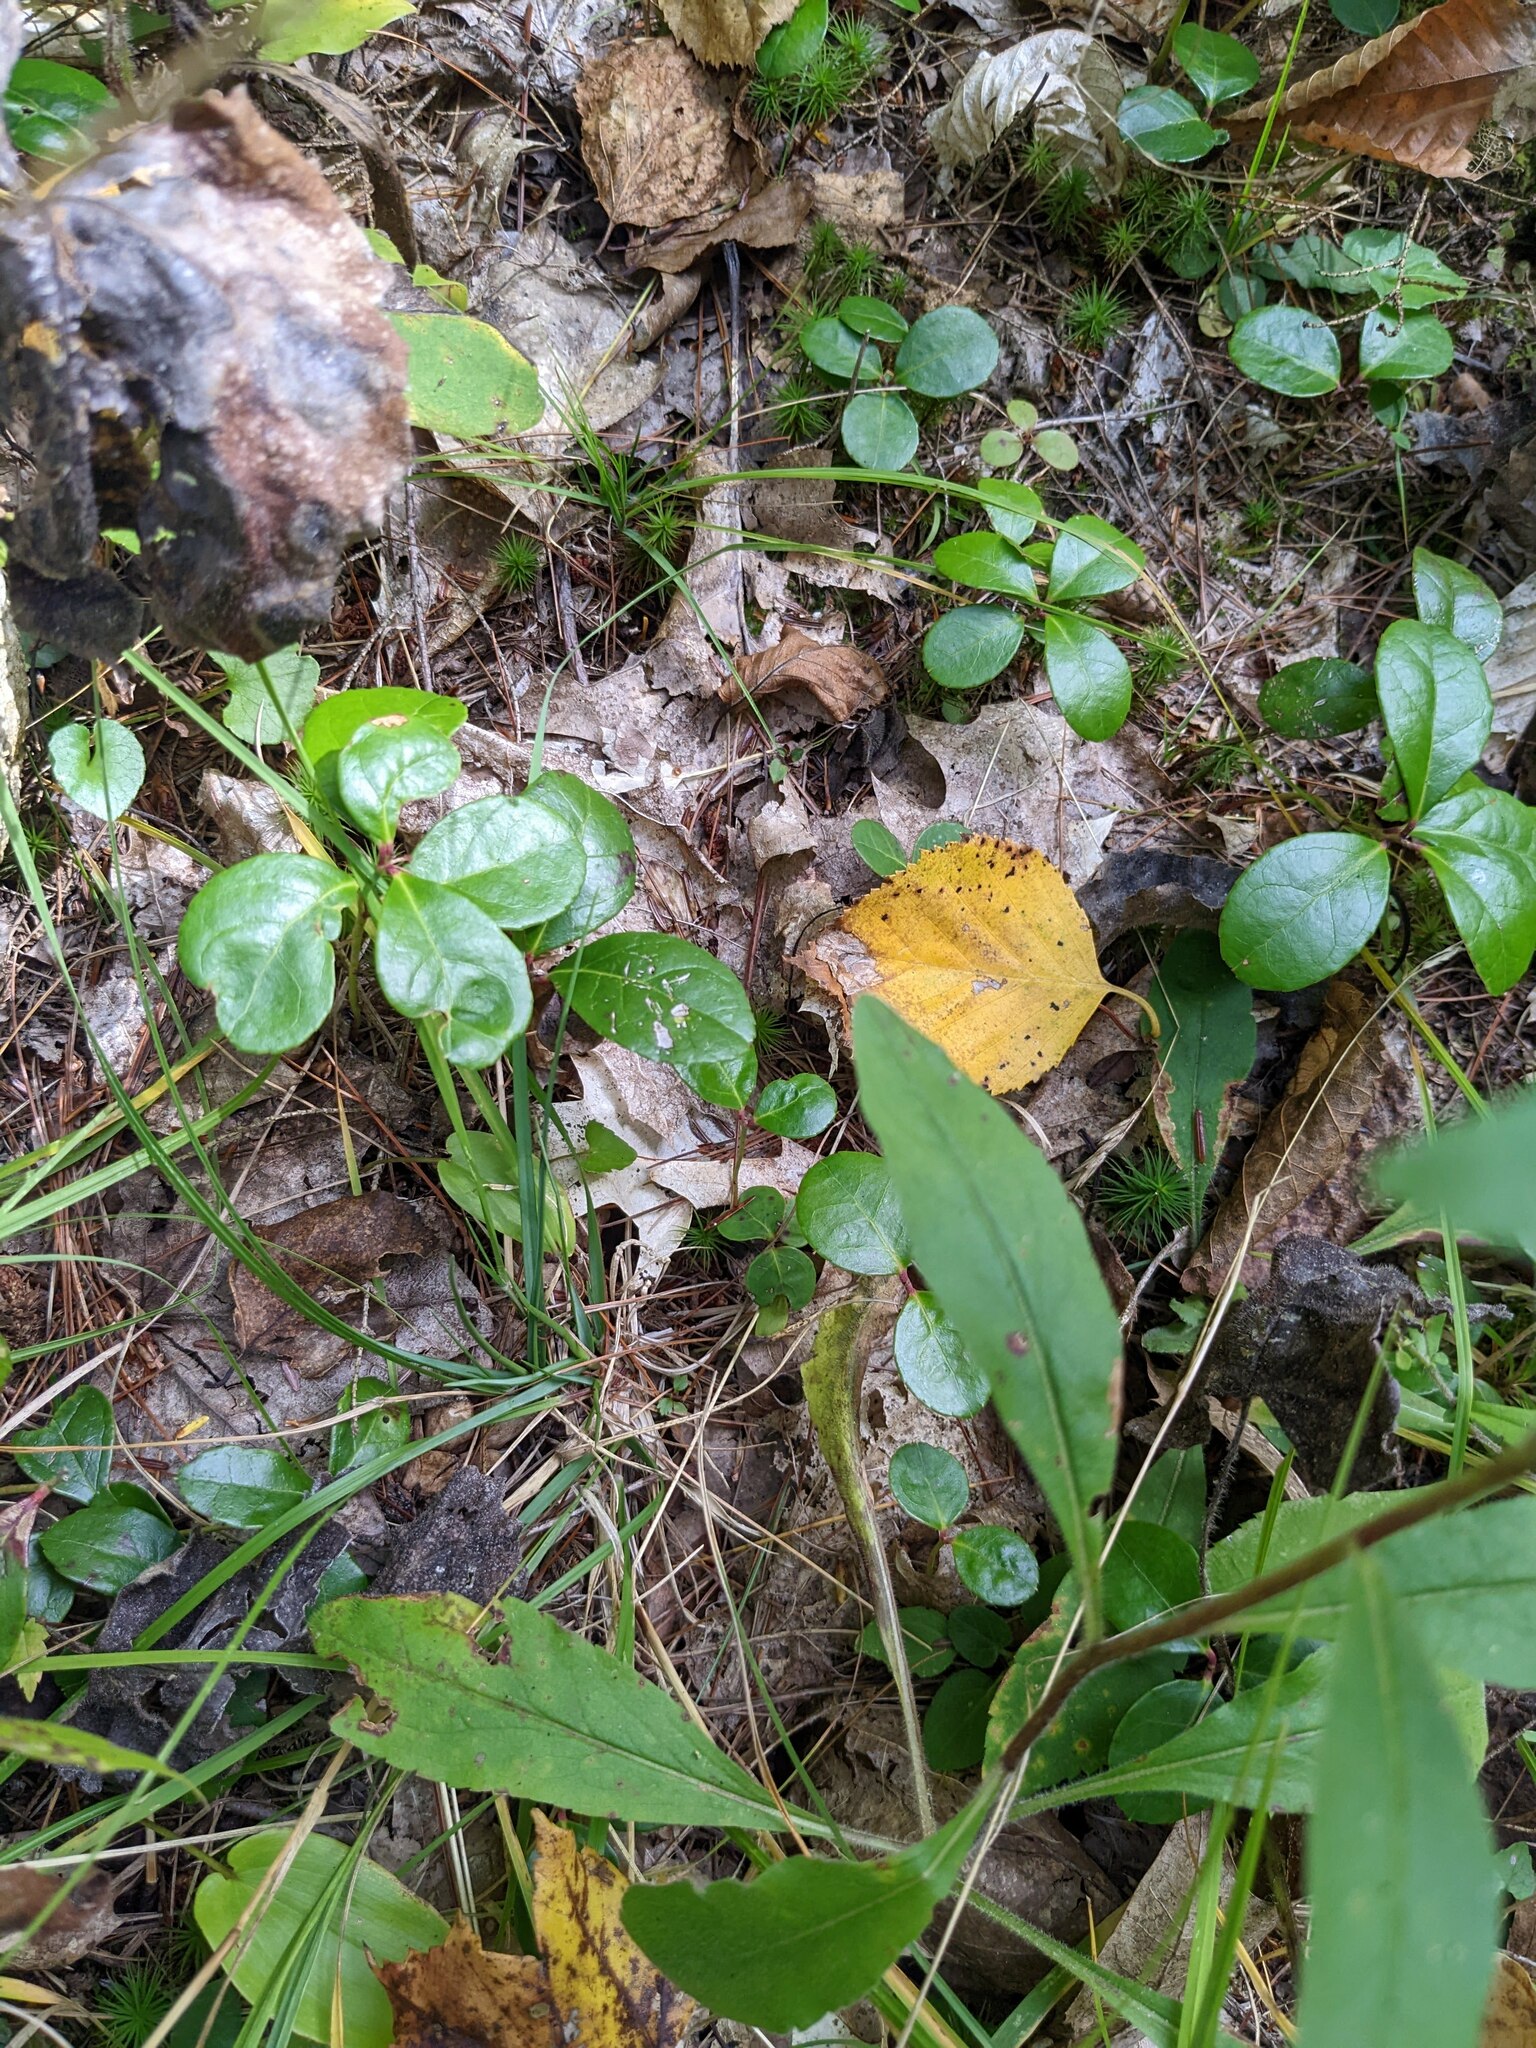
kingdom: Plantae
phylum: Tracheophyta
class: Magnoliopsida
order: Ericales
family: Ericaceae
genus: Gaultheria
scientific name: Gaultheria procumbens
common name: Checkerberry
